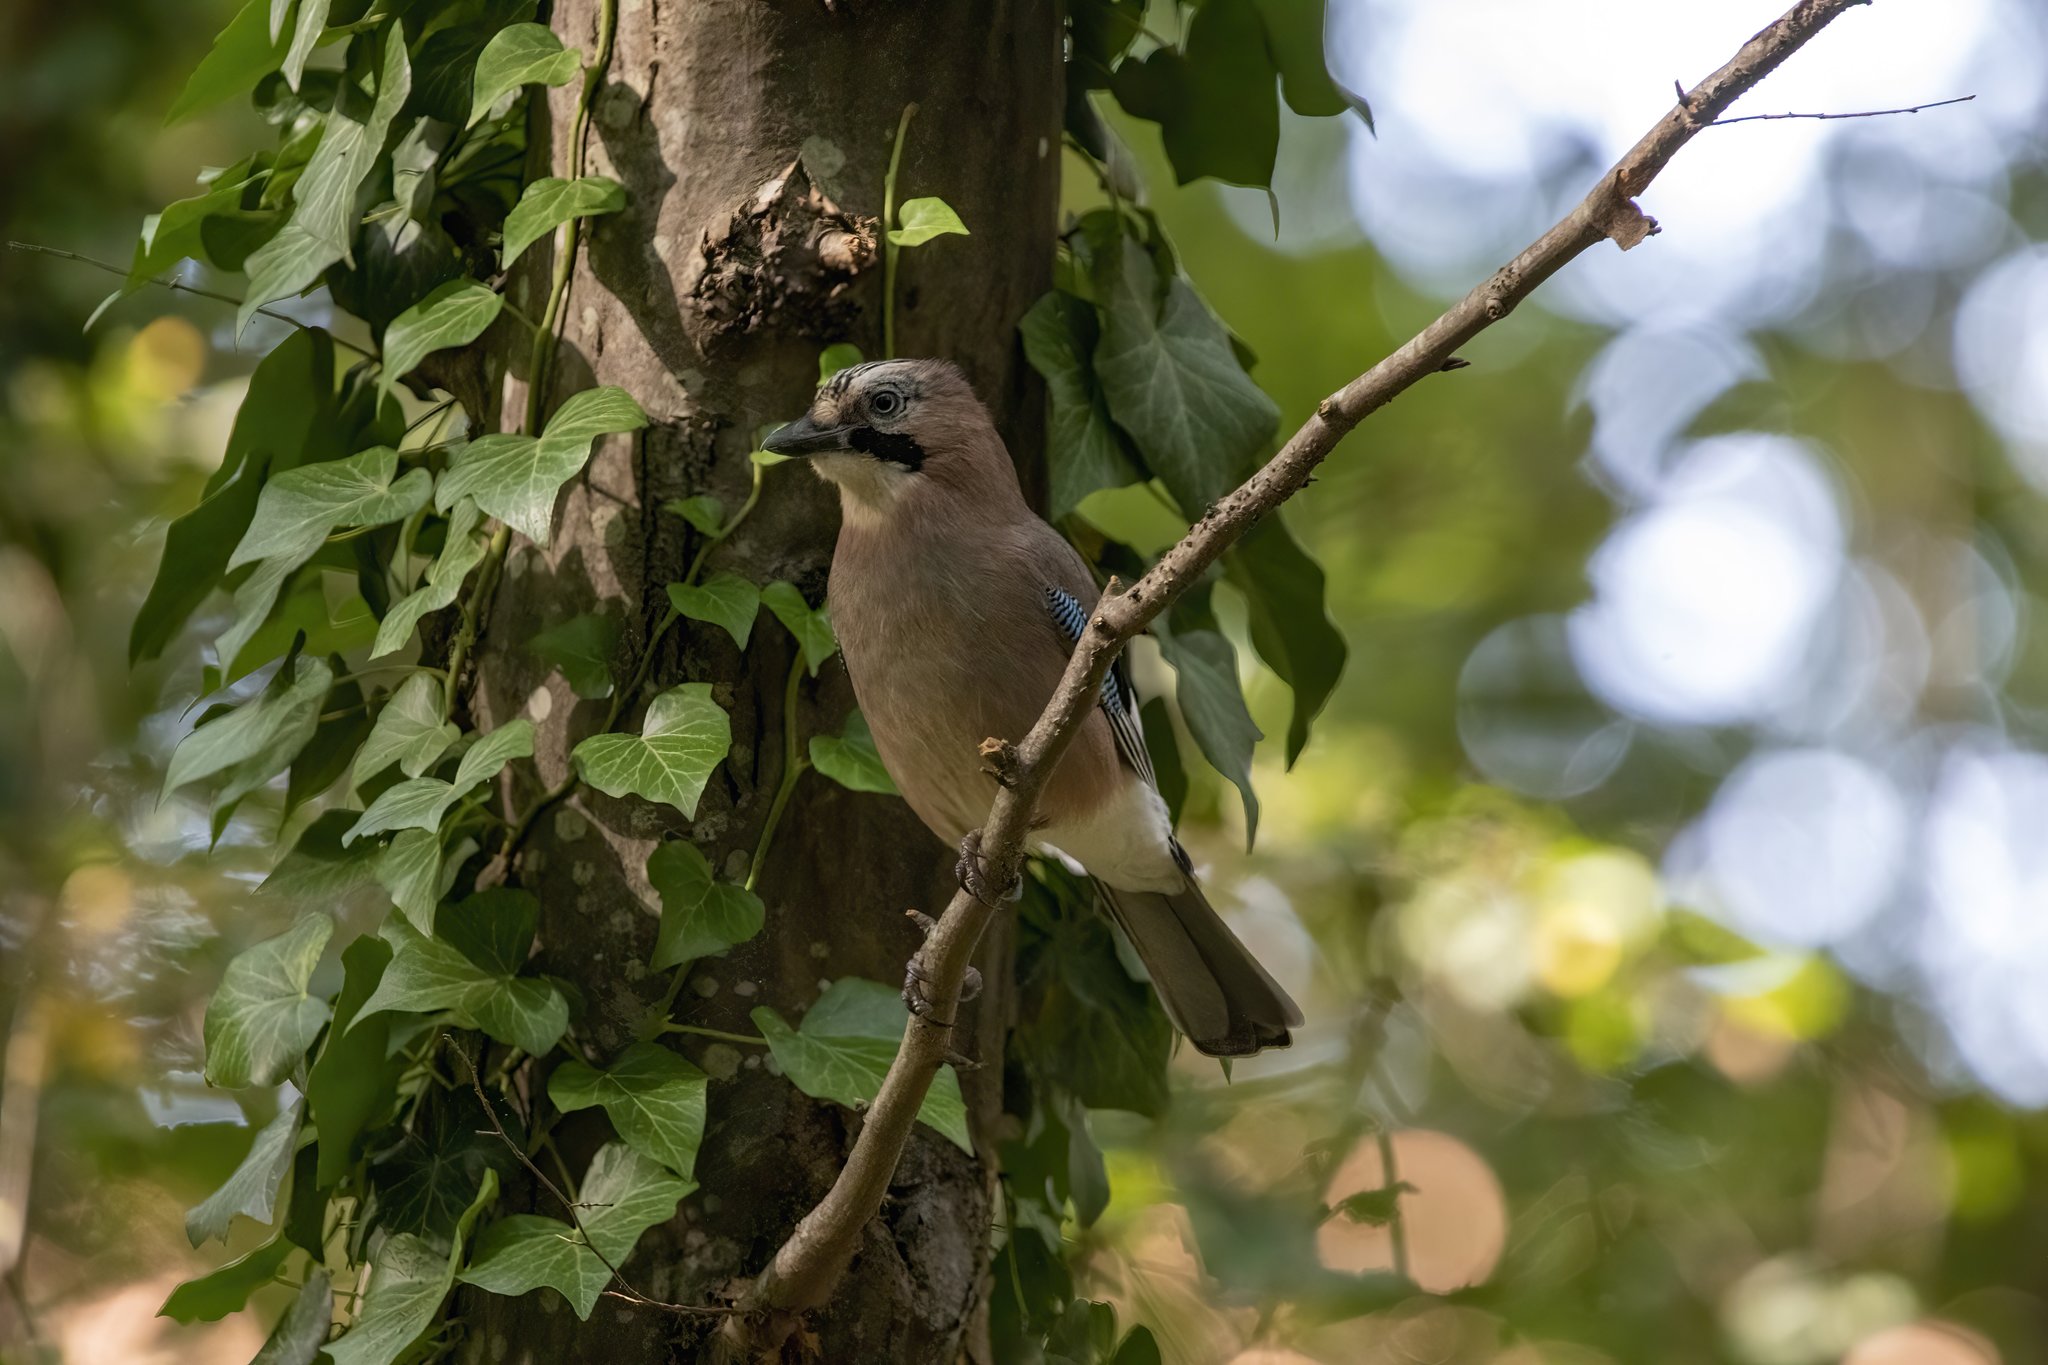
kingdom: Animalia
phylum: Chordata
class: Aves
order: Passeriformes
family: Corvidae
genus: Garrulus
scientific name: Garrulus glandarius
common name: Eurasian jay
